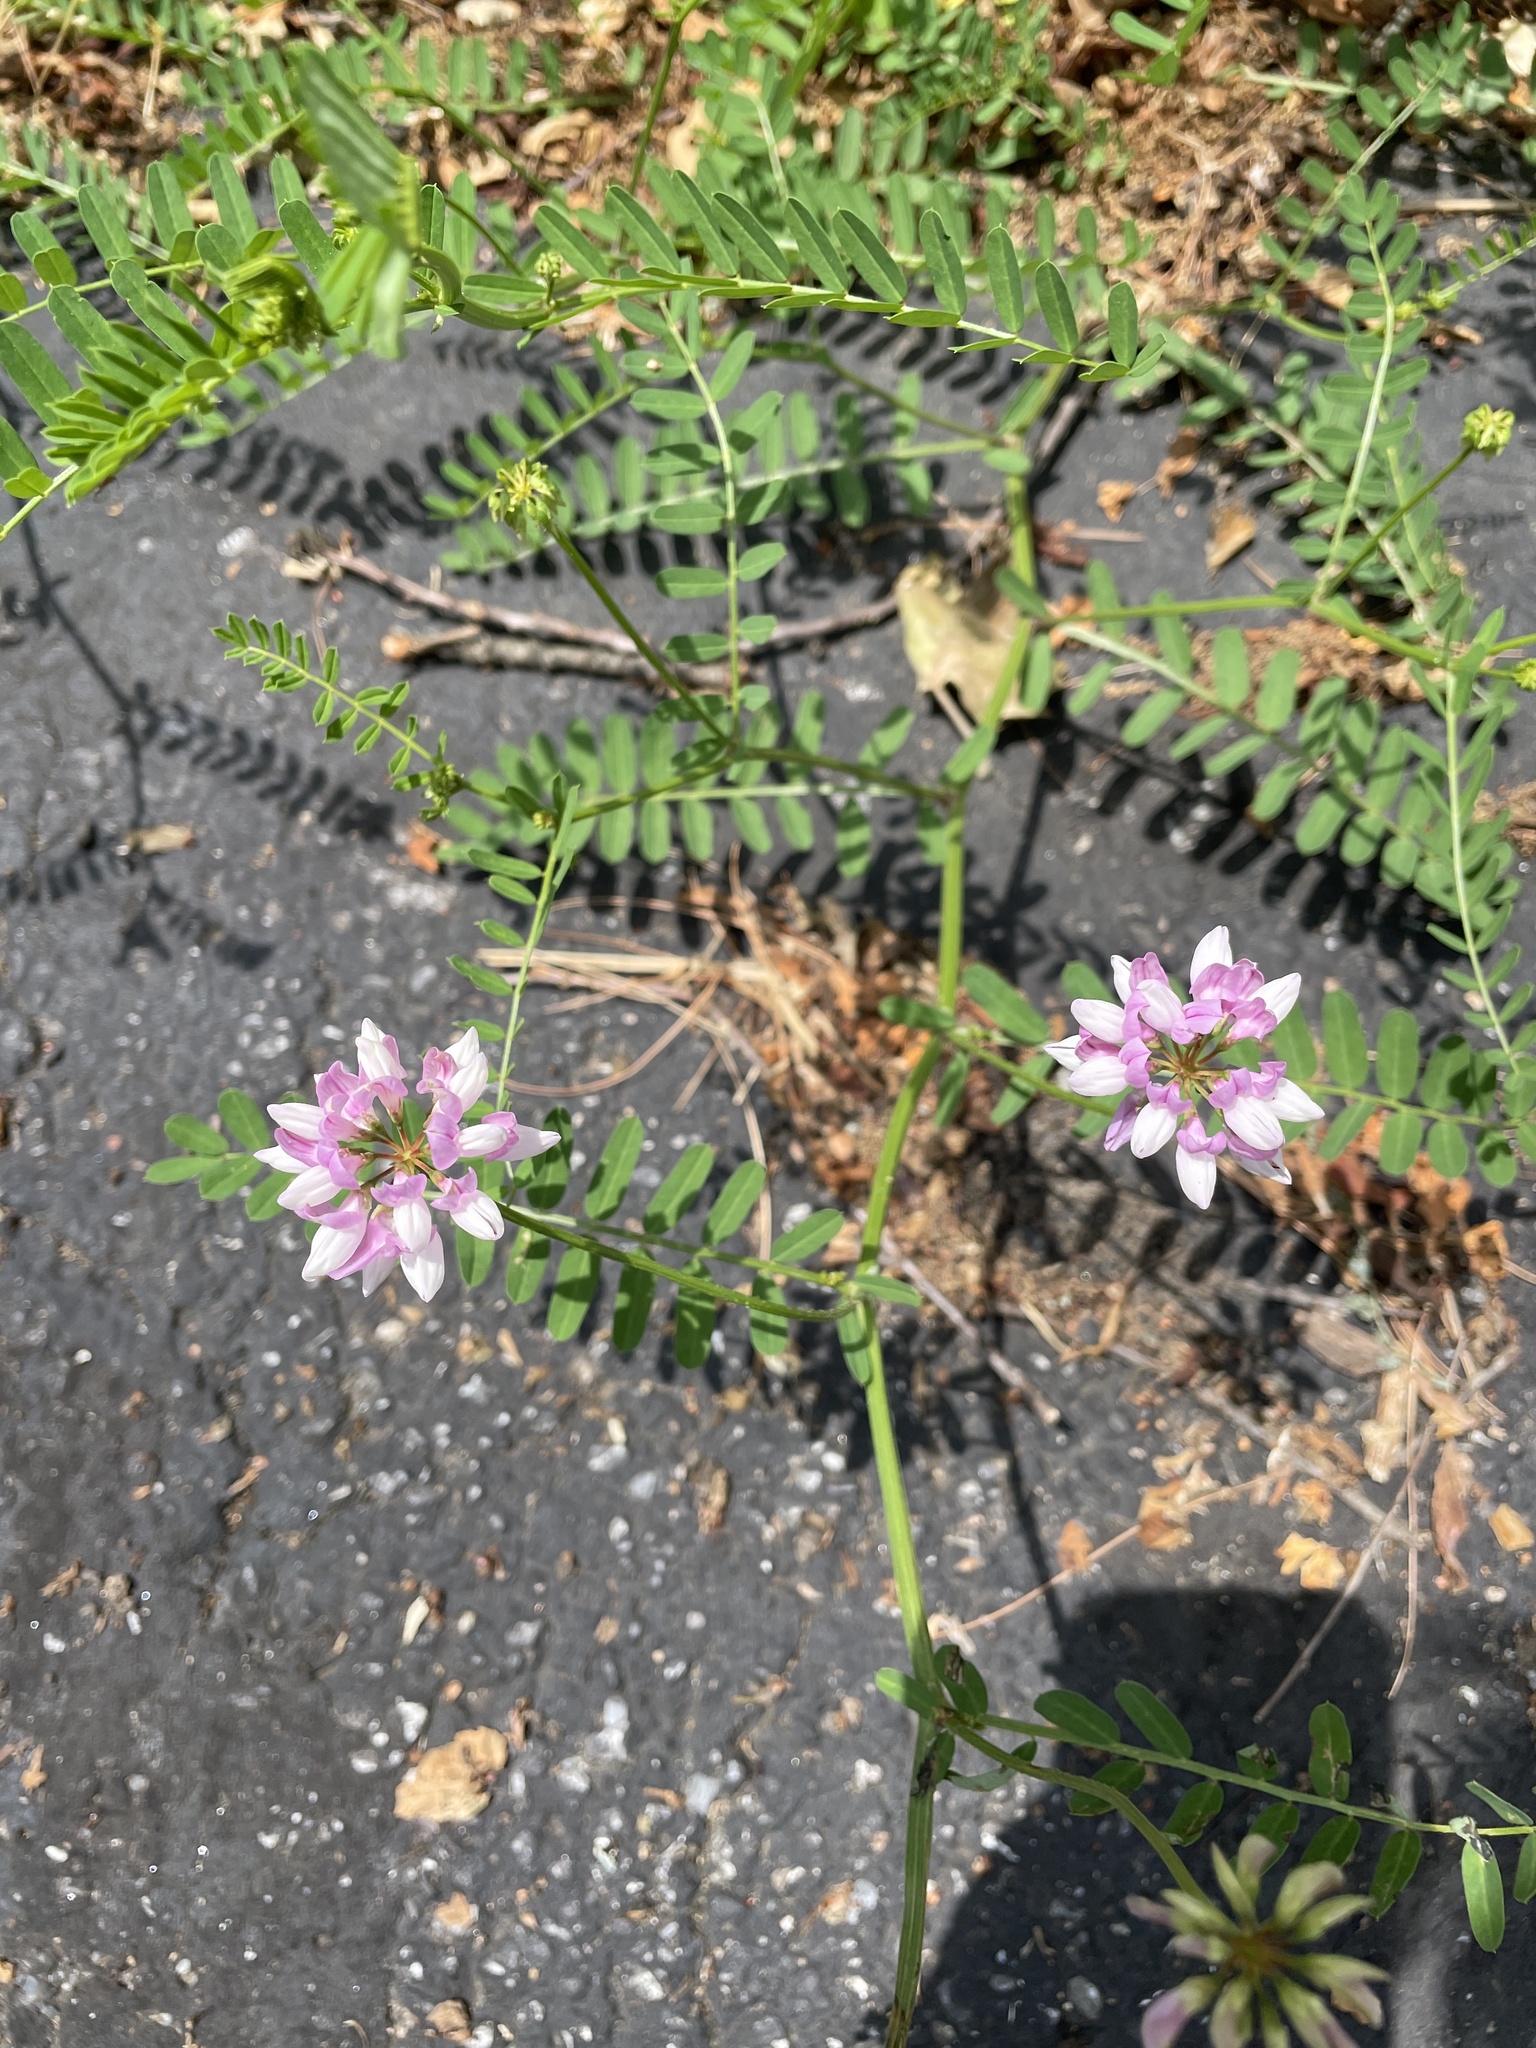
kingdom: Plantae
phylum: Tracheophyta
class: Magnoliopsida
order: Fabales
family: Fabaceae
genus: Coronilla
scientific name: Coronilla varia
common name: Crownvetch
